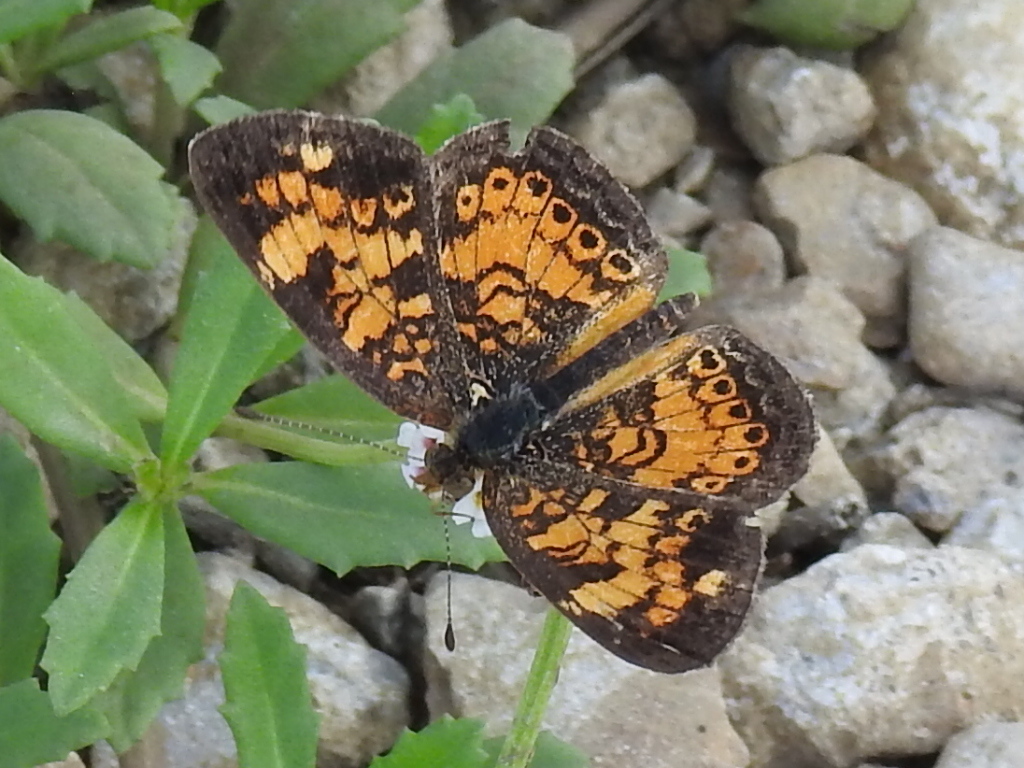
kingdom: Animalia
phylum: Arthropoda
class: Insecta
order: Lepidoptera
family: Nymphalidae
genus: Phyciodes
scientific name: Phyciodes tharos
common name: Pearl crescent
